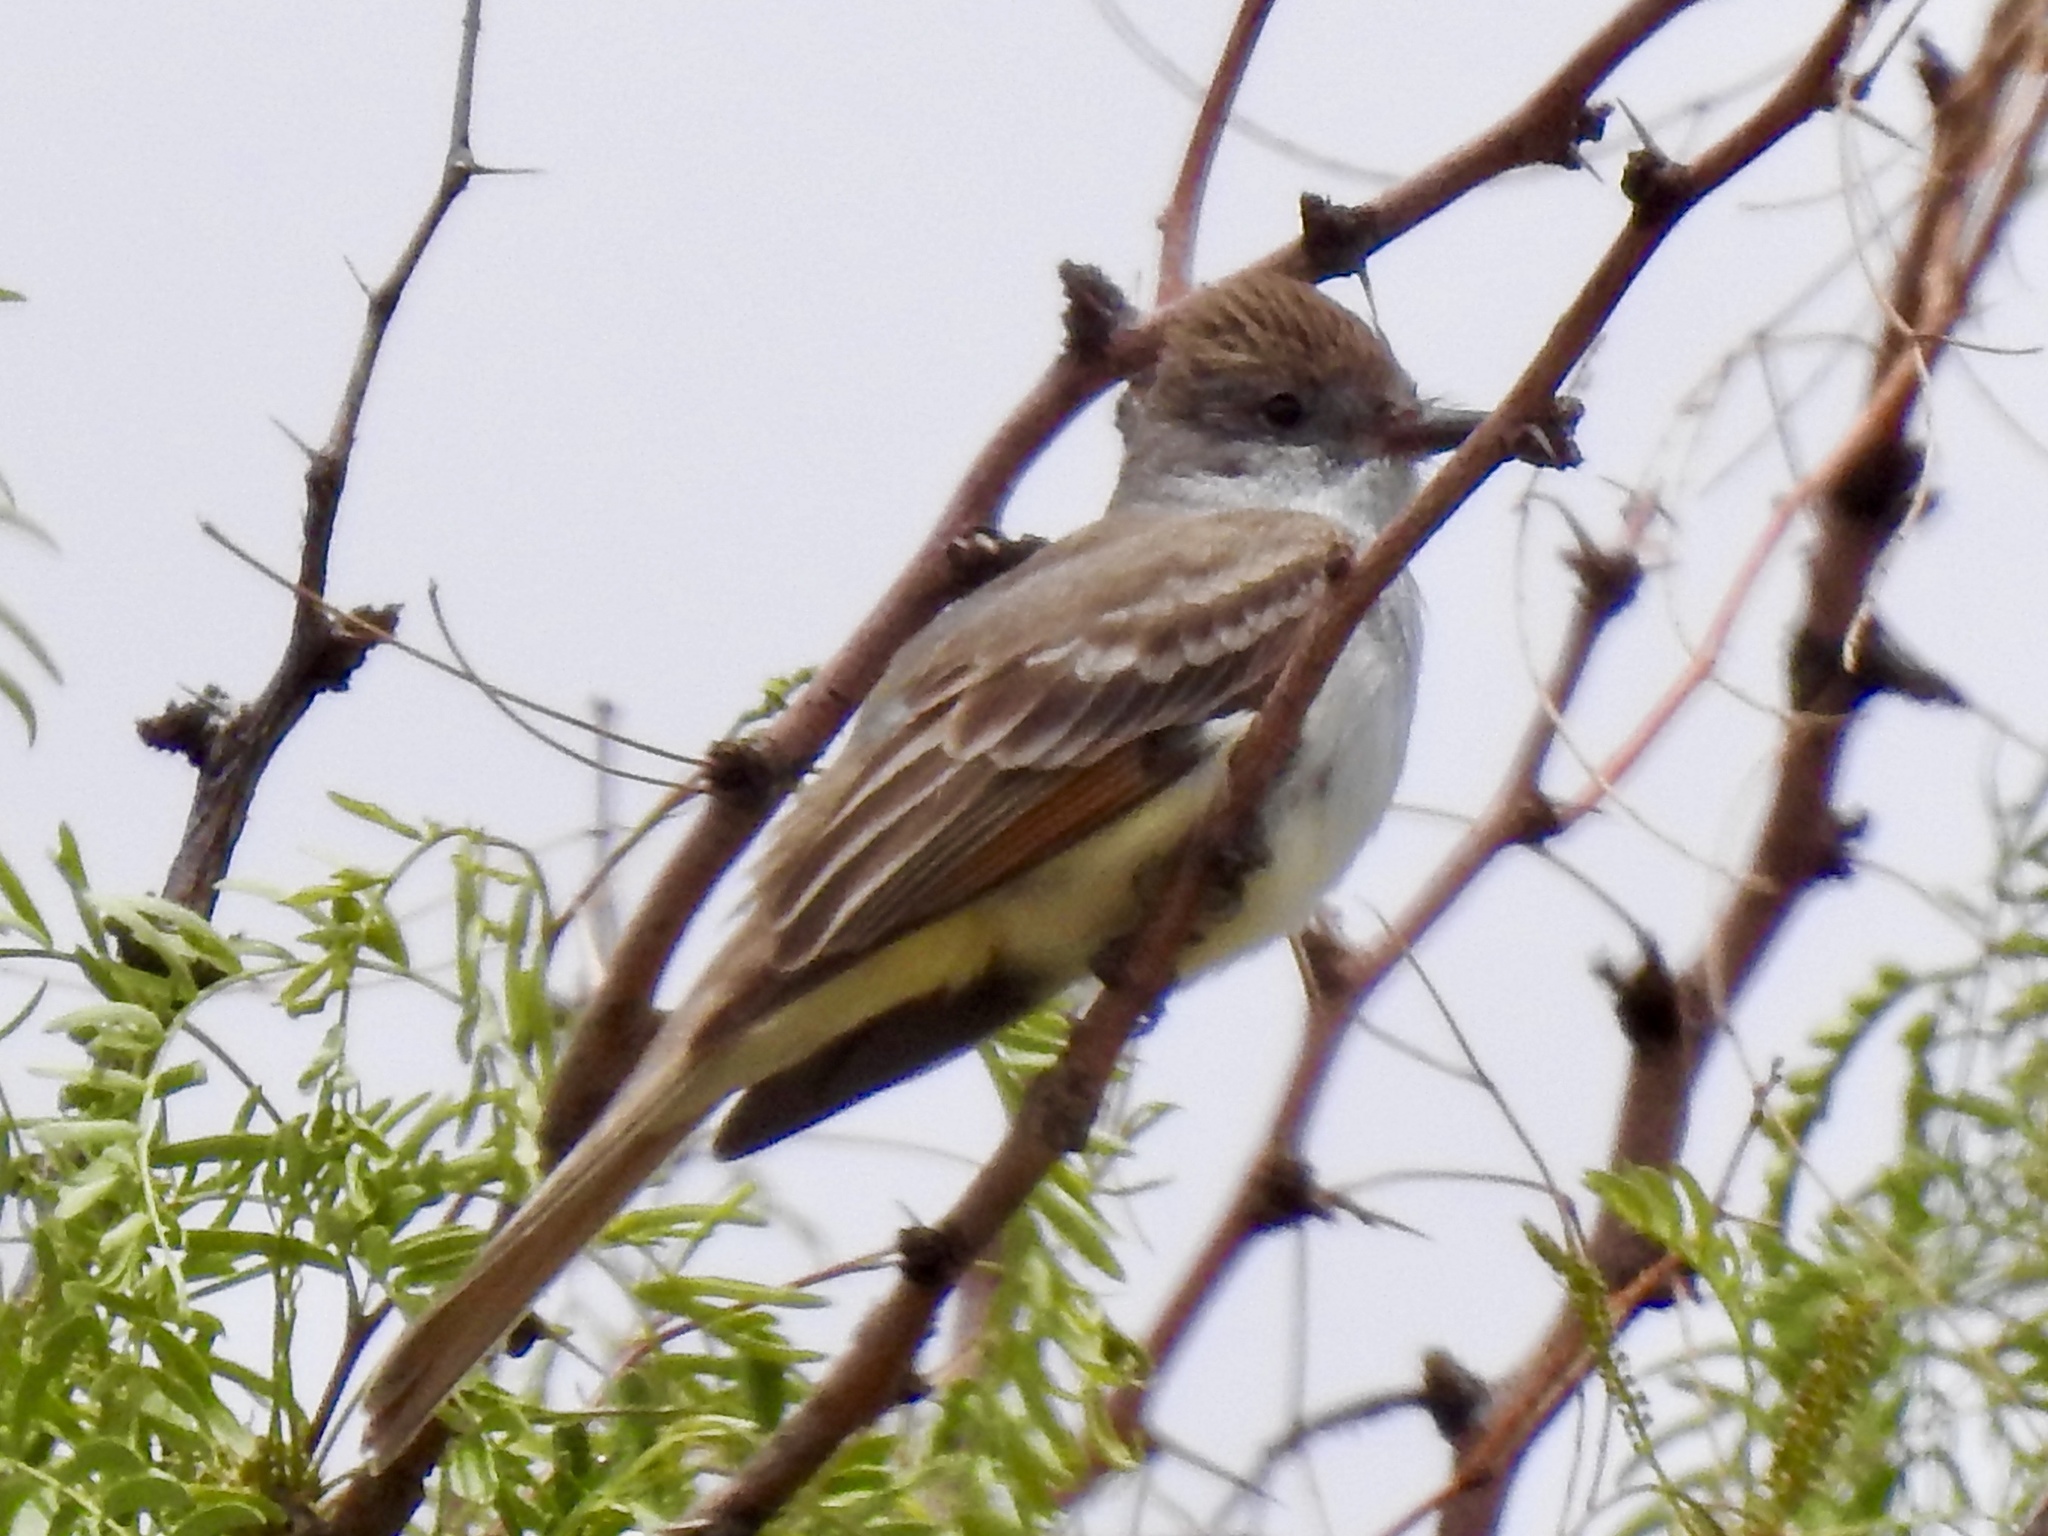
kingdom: Animalia
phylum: Chordata
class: Aves
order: Passeriformes
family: Tyrannidae
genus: Myiarchus
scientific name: Myiarchus cinerascens
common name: Ash-throated flycatcher
